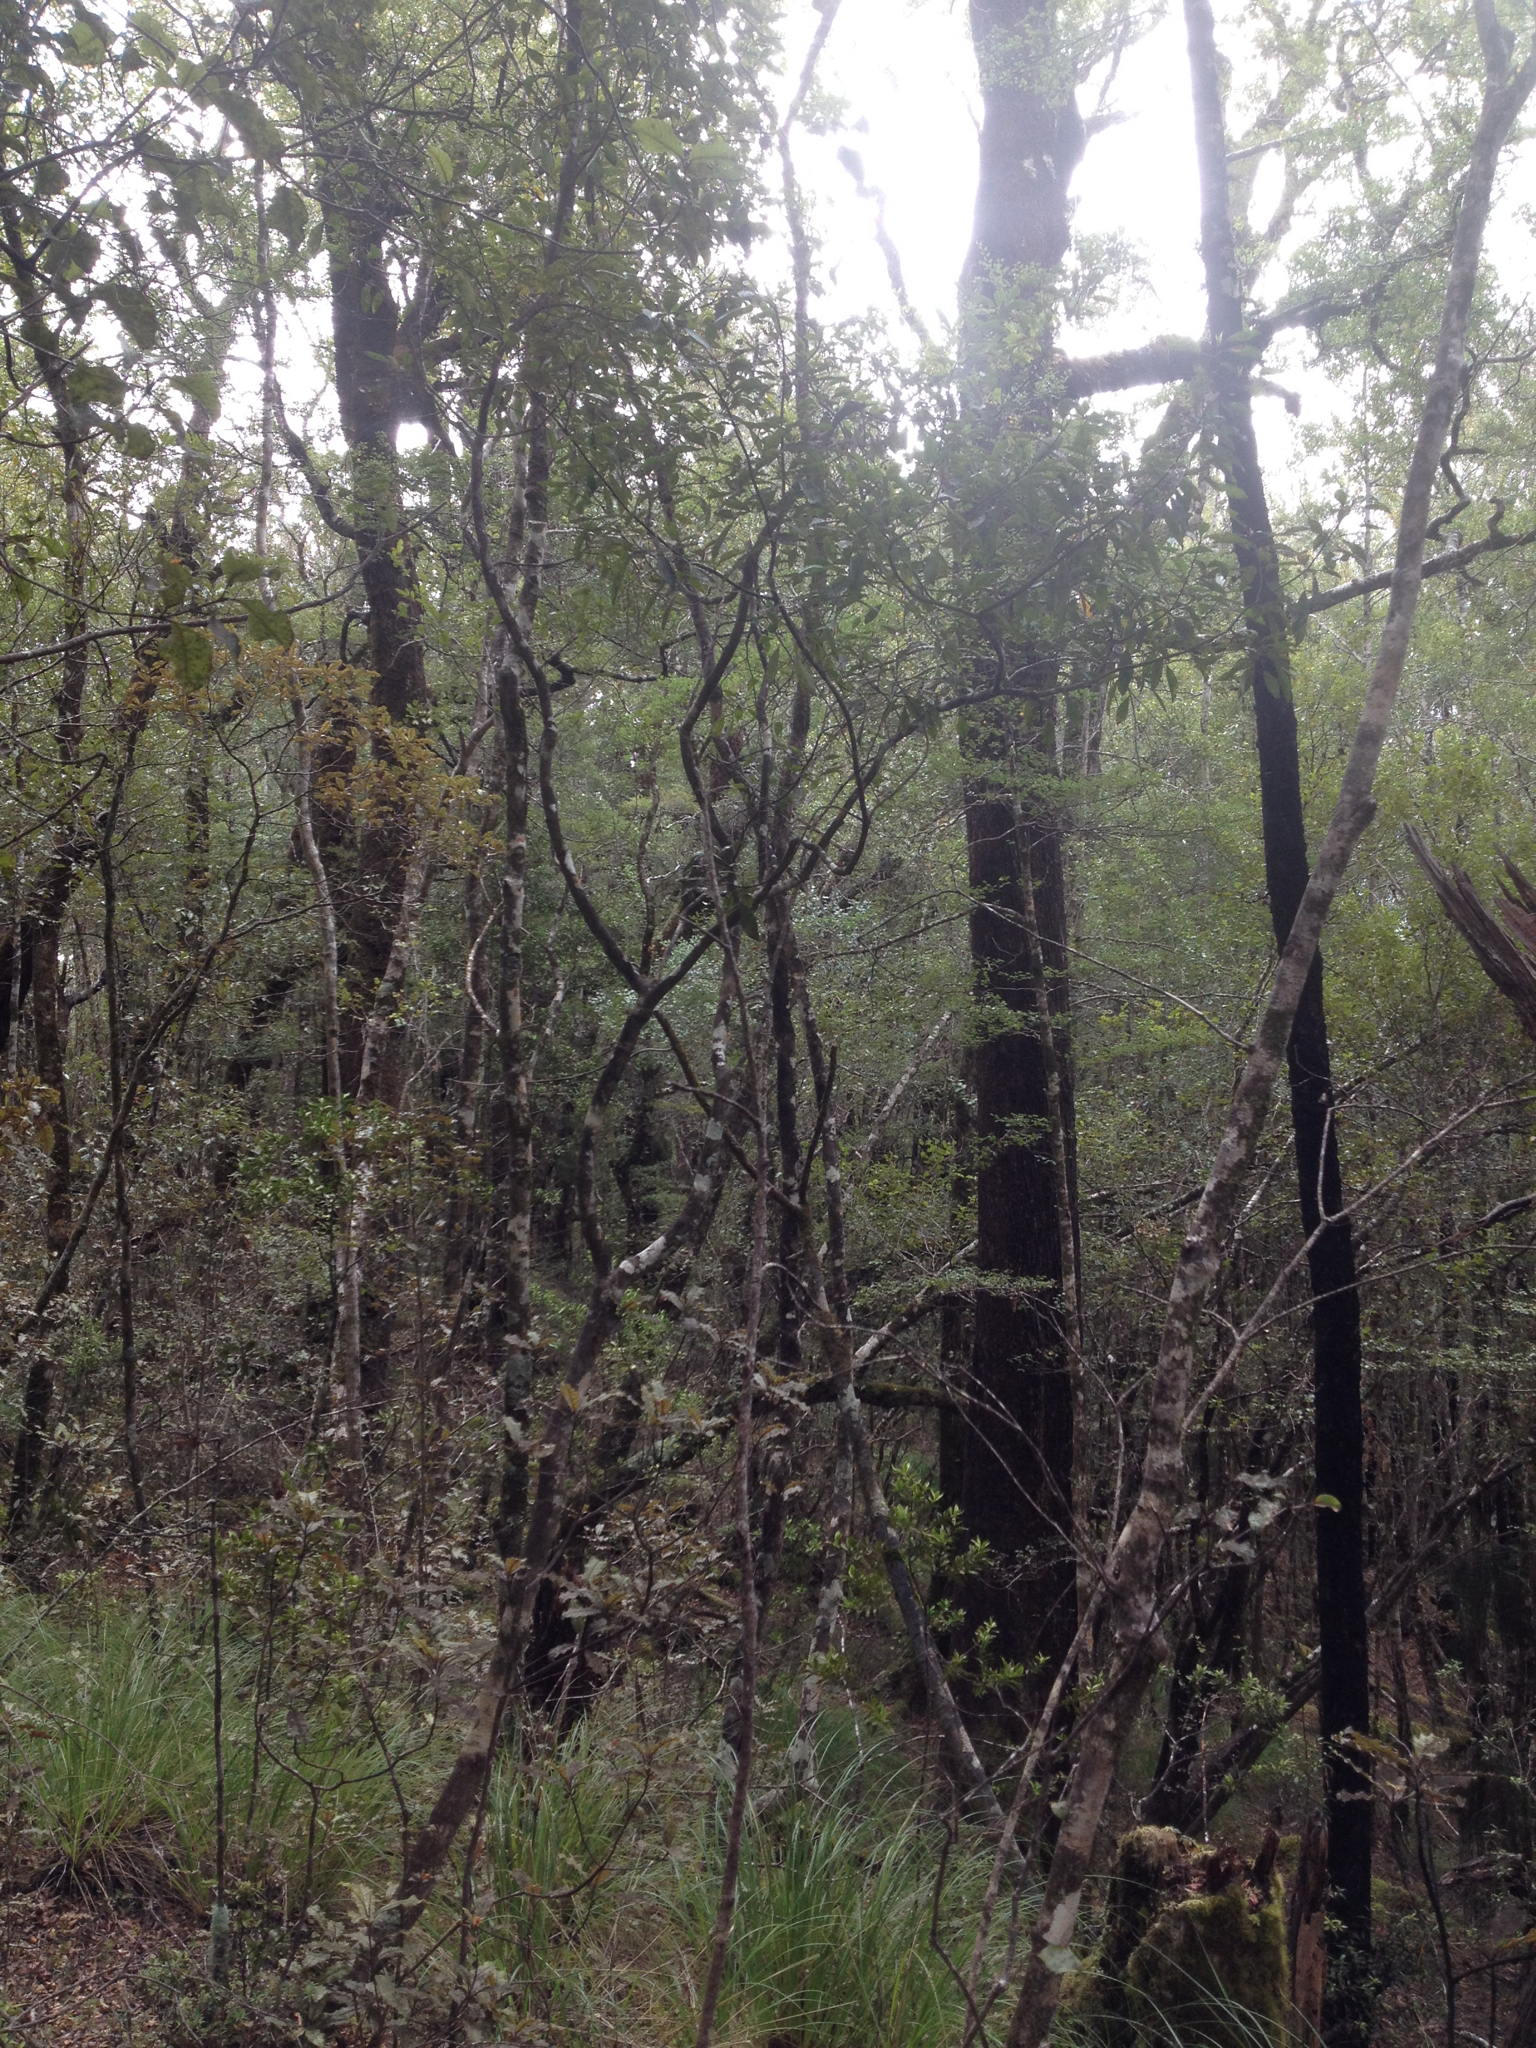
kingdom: Plantae
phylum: Tracheophyta
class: Magnoliopsida
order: Apiales
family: Araliaceae
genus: Raukaua
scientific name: Raukaua simplex
